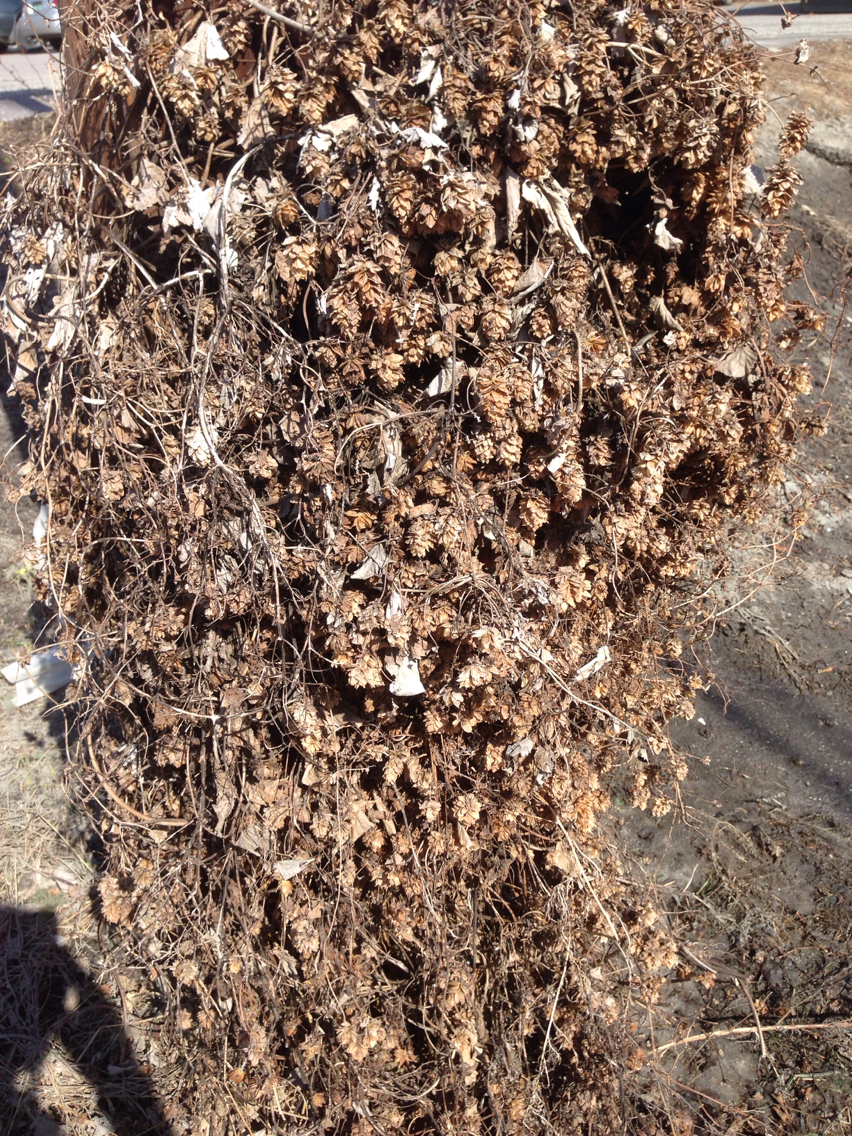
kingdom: Plantae
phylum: Tracheophyta
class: Magnoliopsida
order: Rosales
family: Cannabaceae
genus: Humulus
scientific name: Humulus lupulus
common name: Hop
